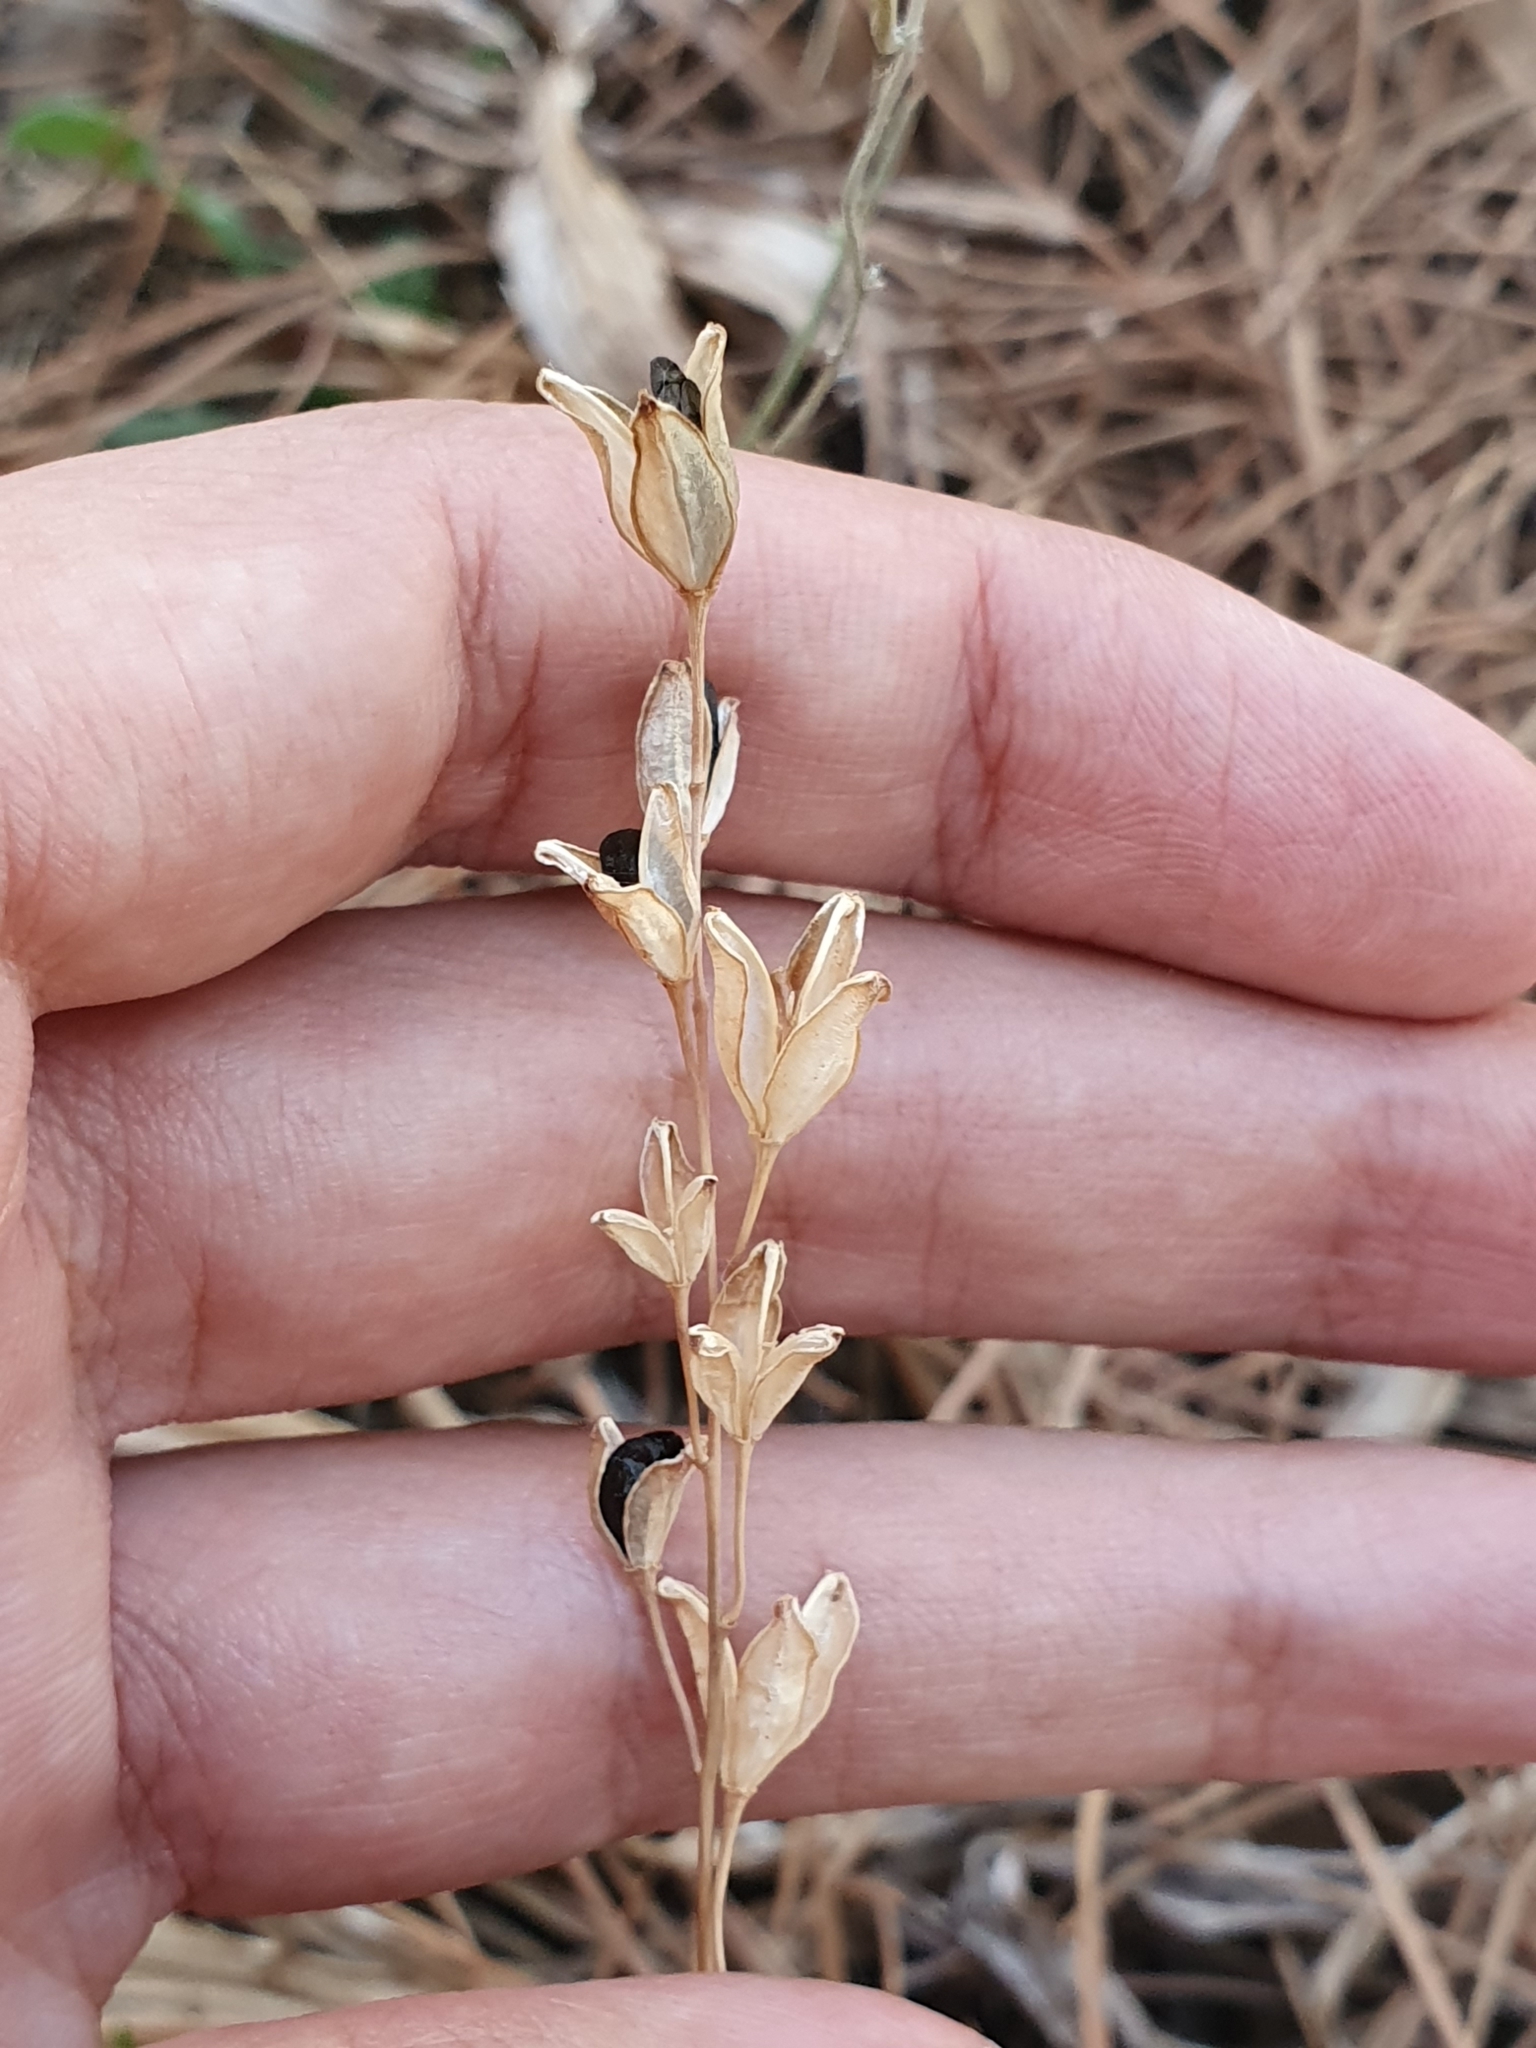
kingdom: Plantae
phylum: Tracheophyta
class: Liliopsida
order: Asparagales
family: Asparagaceae
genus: Drimia
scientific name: Drimia fugax
